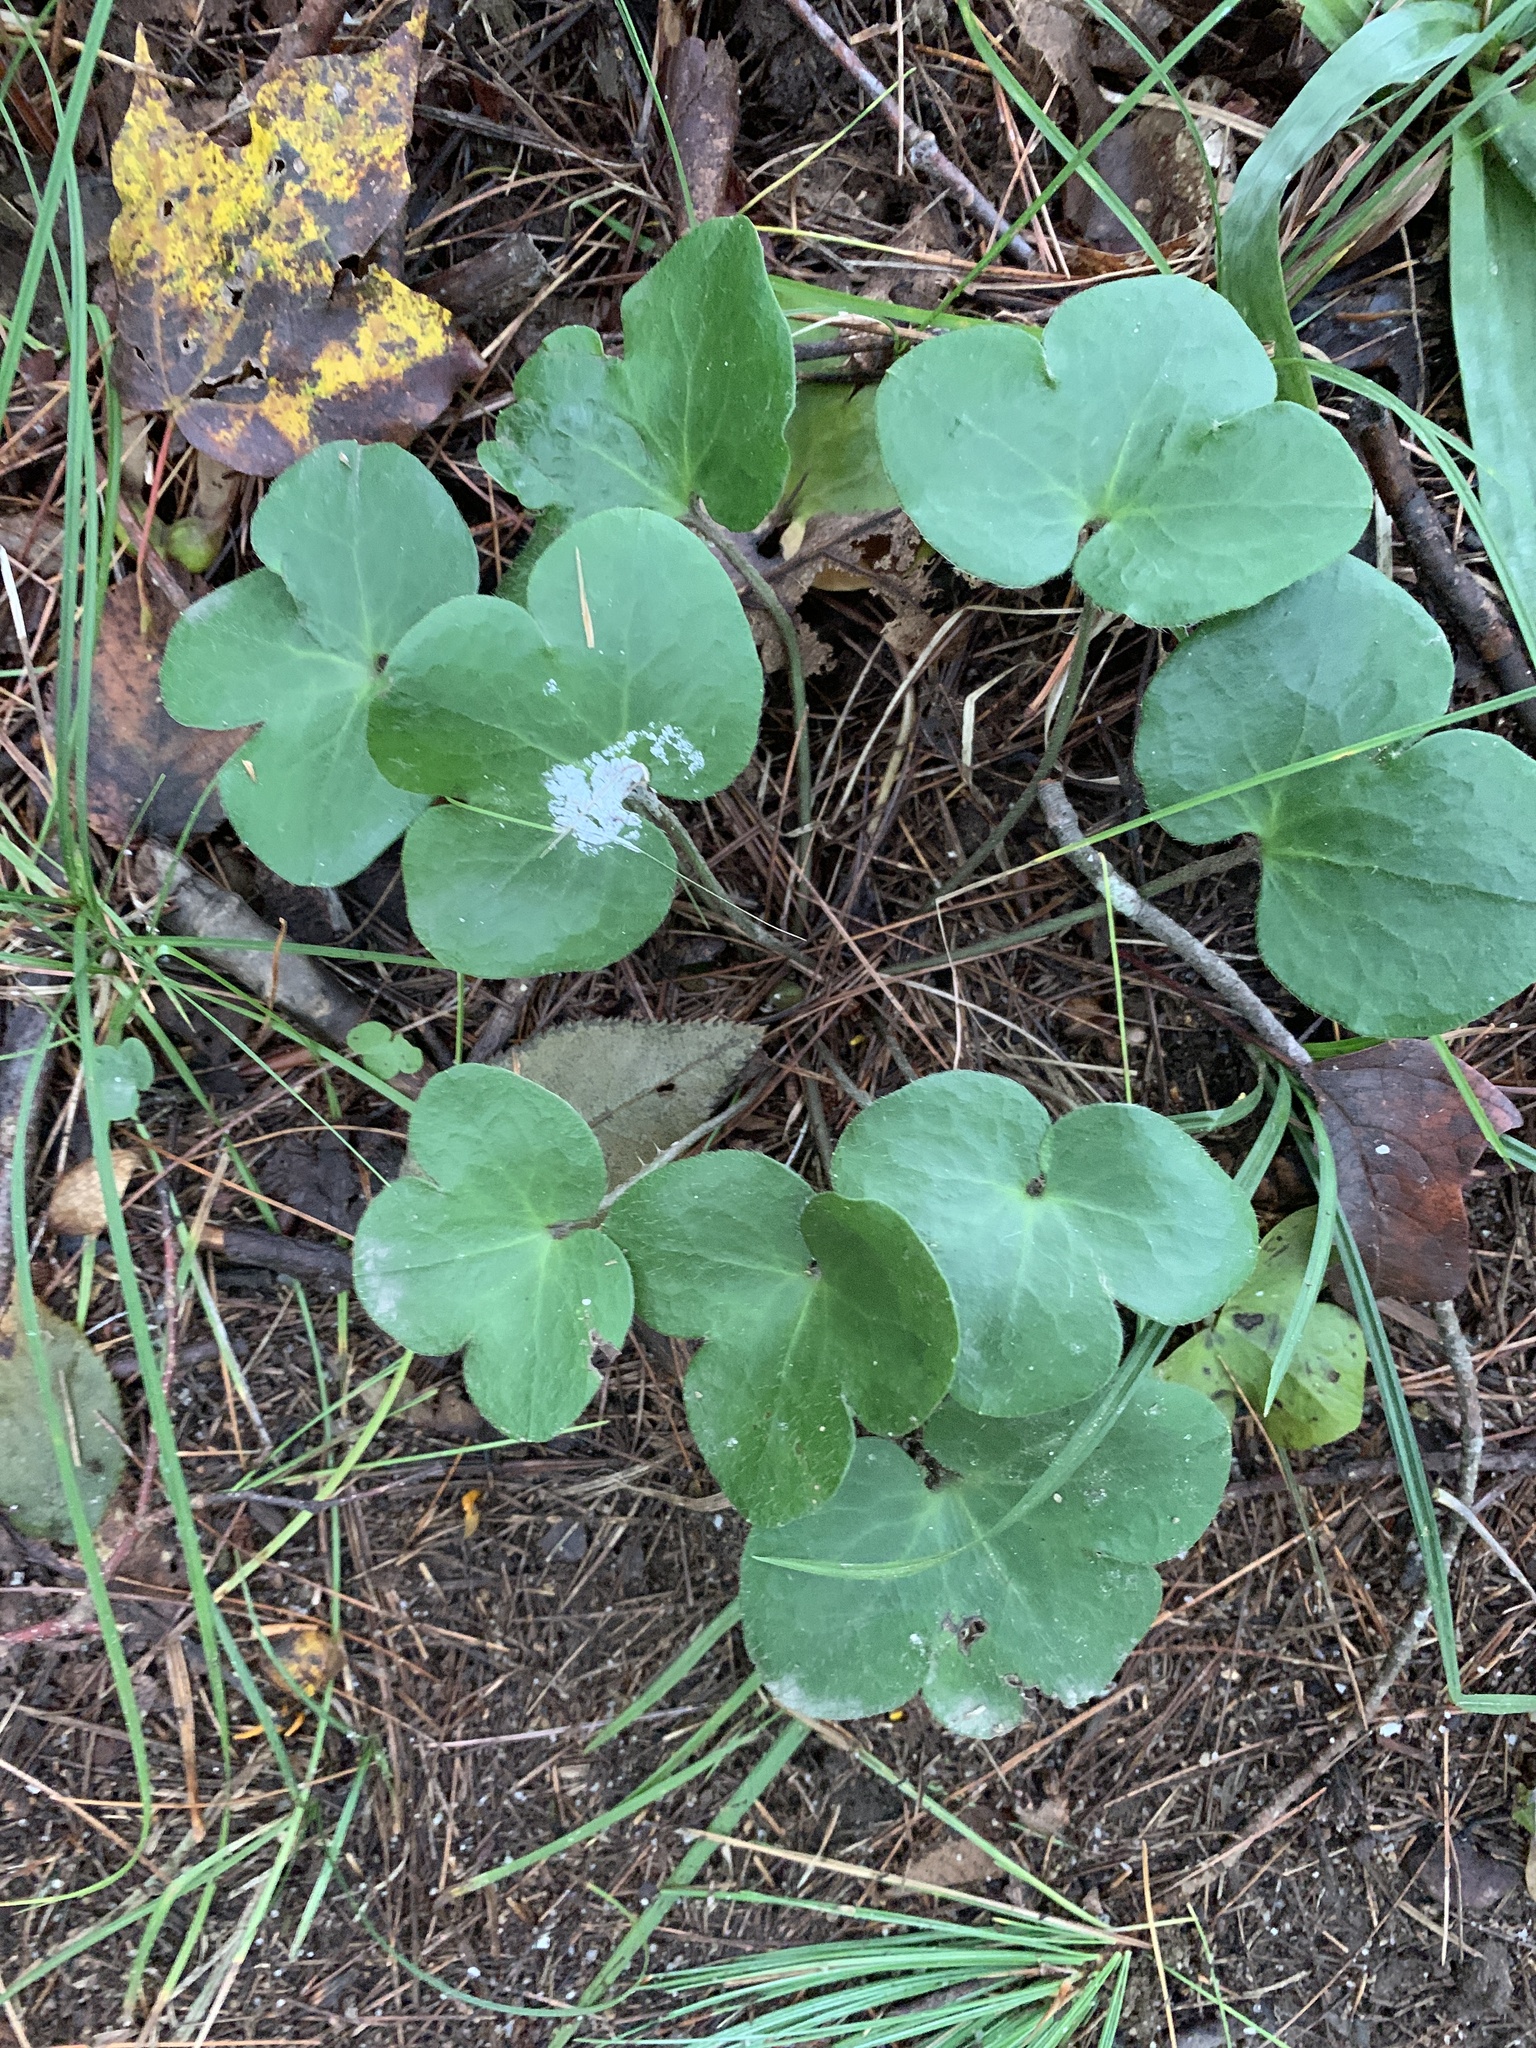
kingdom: Plantae
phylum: Tracheophyta
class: Magnoliopsida
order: Ranunculales
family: Ranunculaceae
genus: Hepatica
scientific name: Hepatica americana
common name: American hepatica
